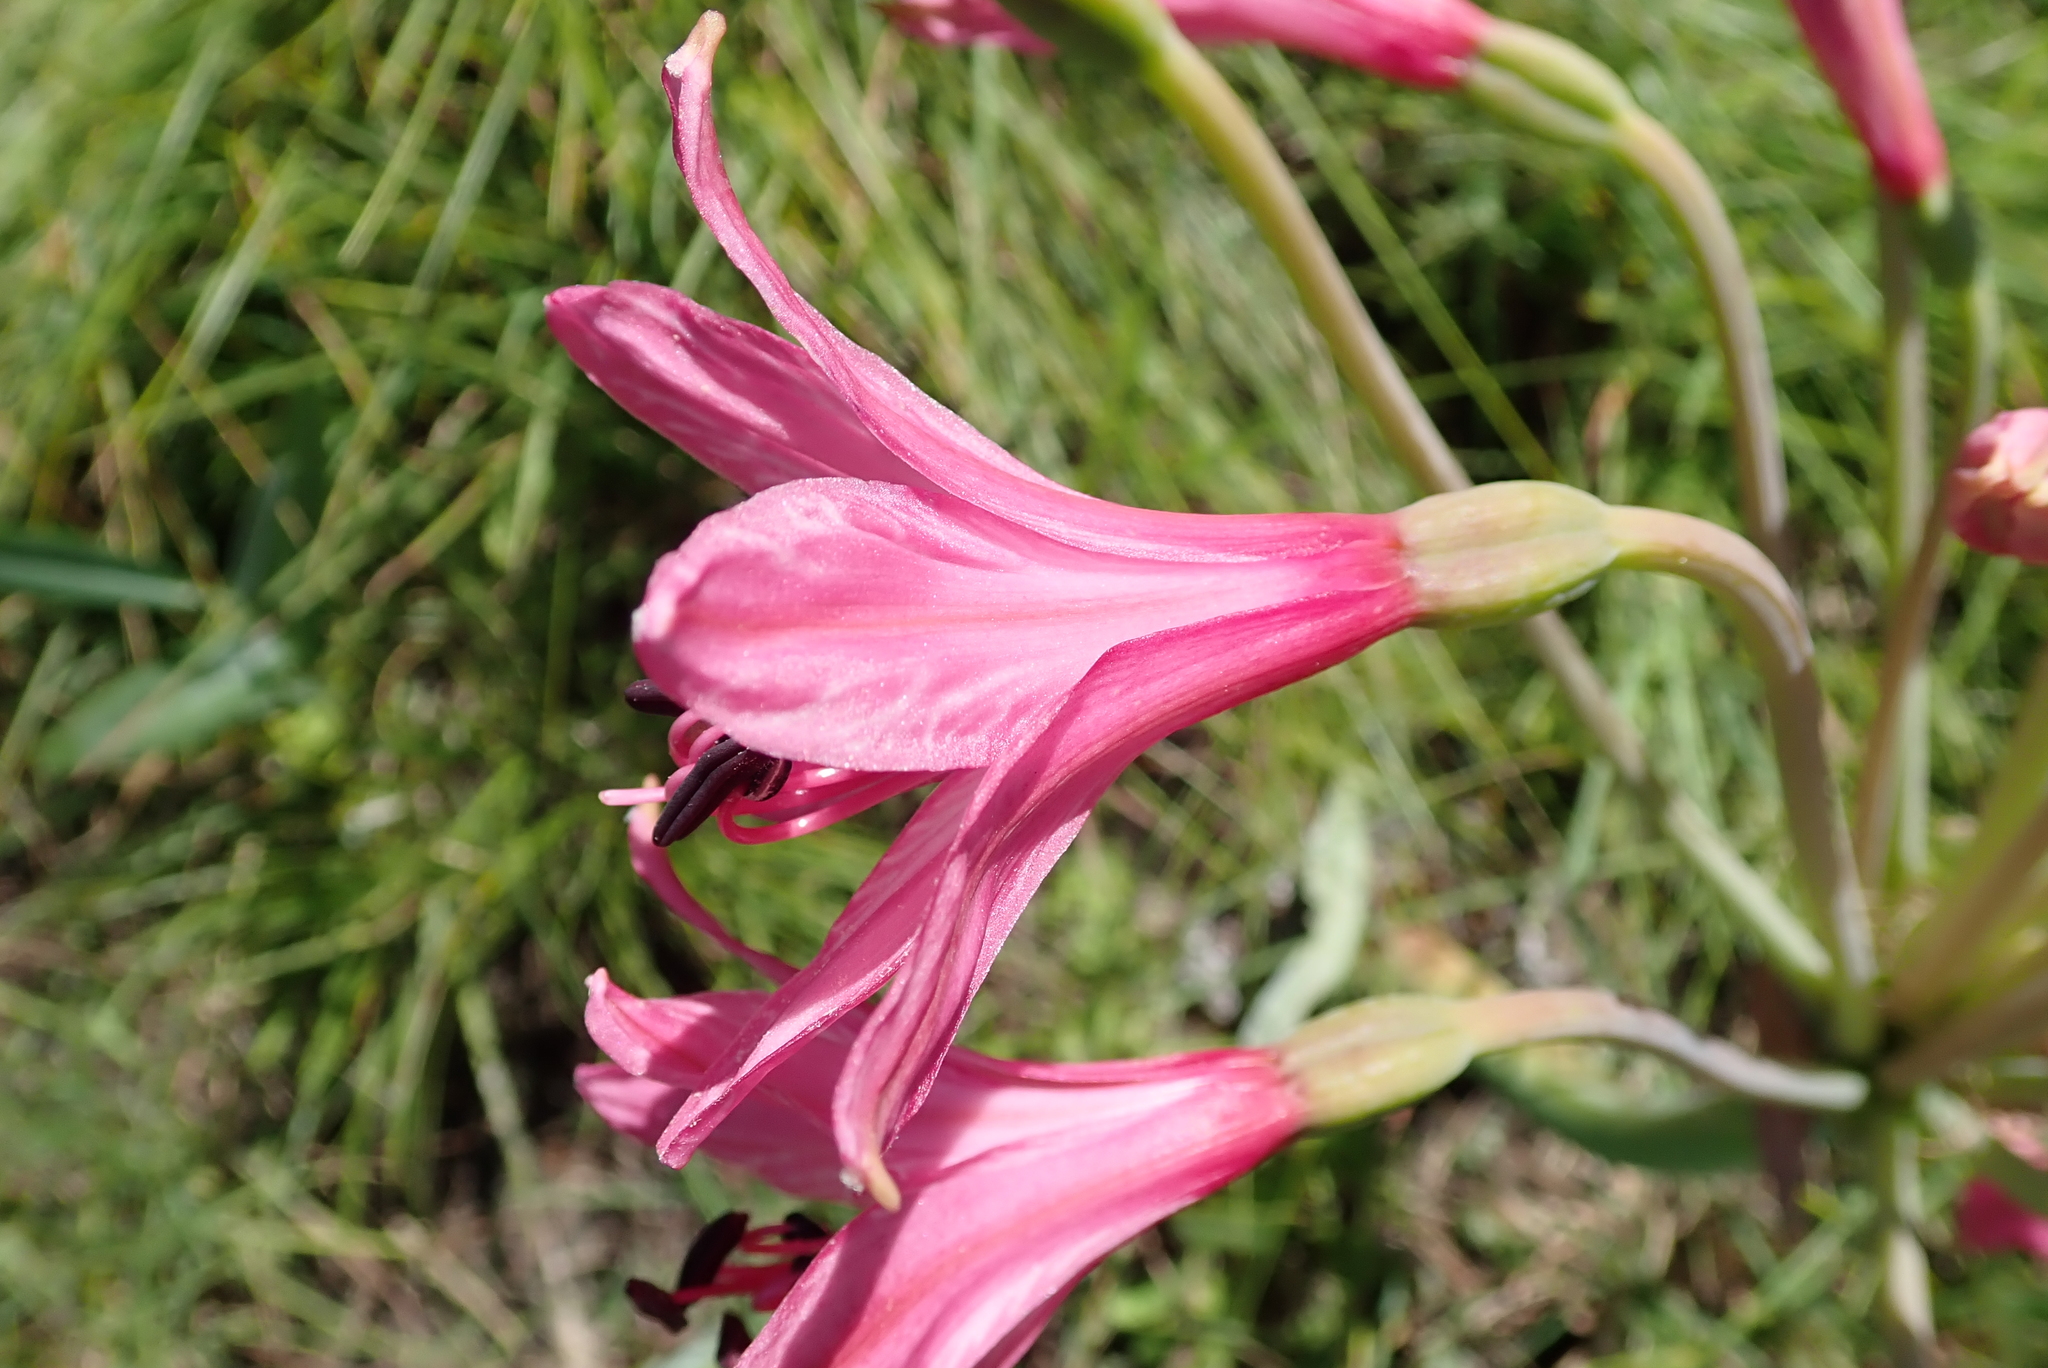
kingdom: Plantae
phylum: Tracheophyta
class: Liliopsida
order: Asparagales
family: Amaryllidaceae
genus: Brunsvigia
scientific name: Brunsvigia grandiflora
